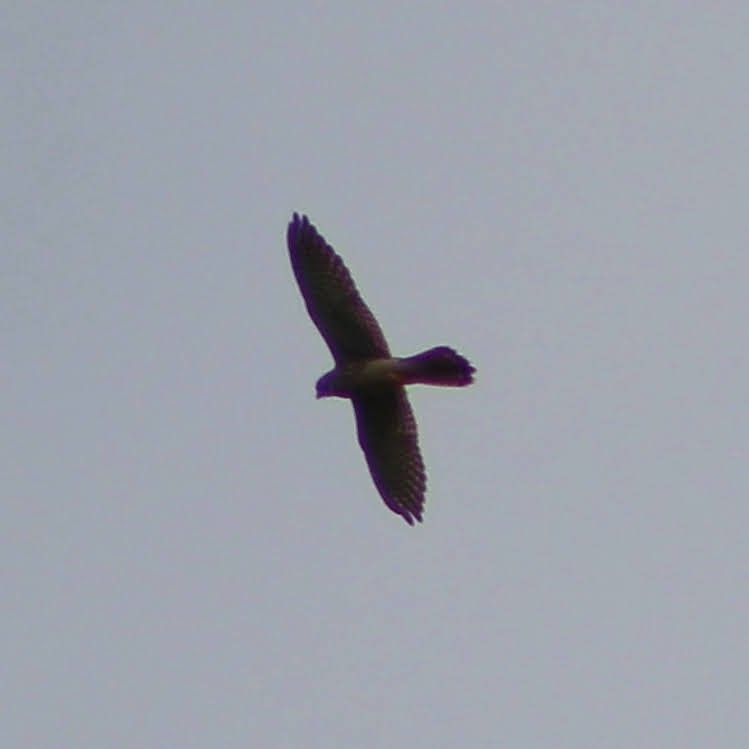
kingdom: Animalia
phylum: Chordata
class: Aves
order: Falconiformes
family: Falconidae
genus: Falco
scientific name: Falco tinnunculus
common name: Common kestrel
